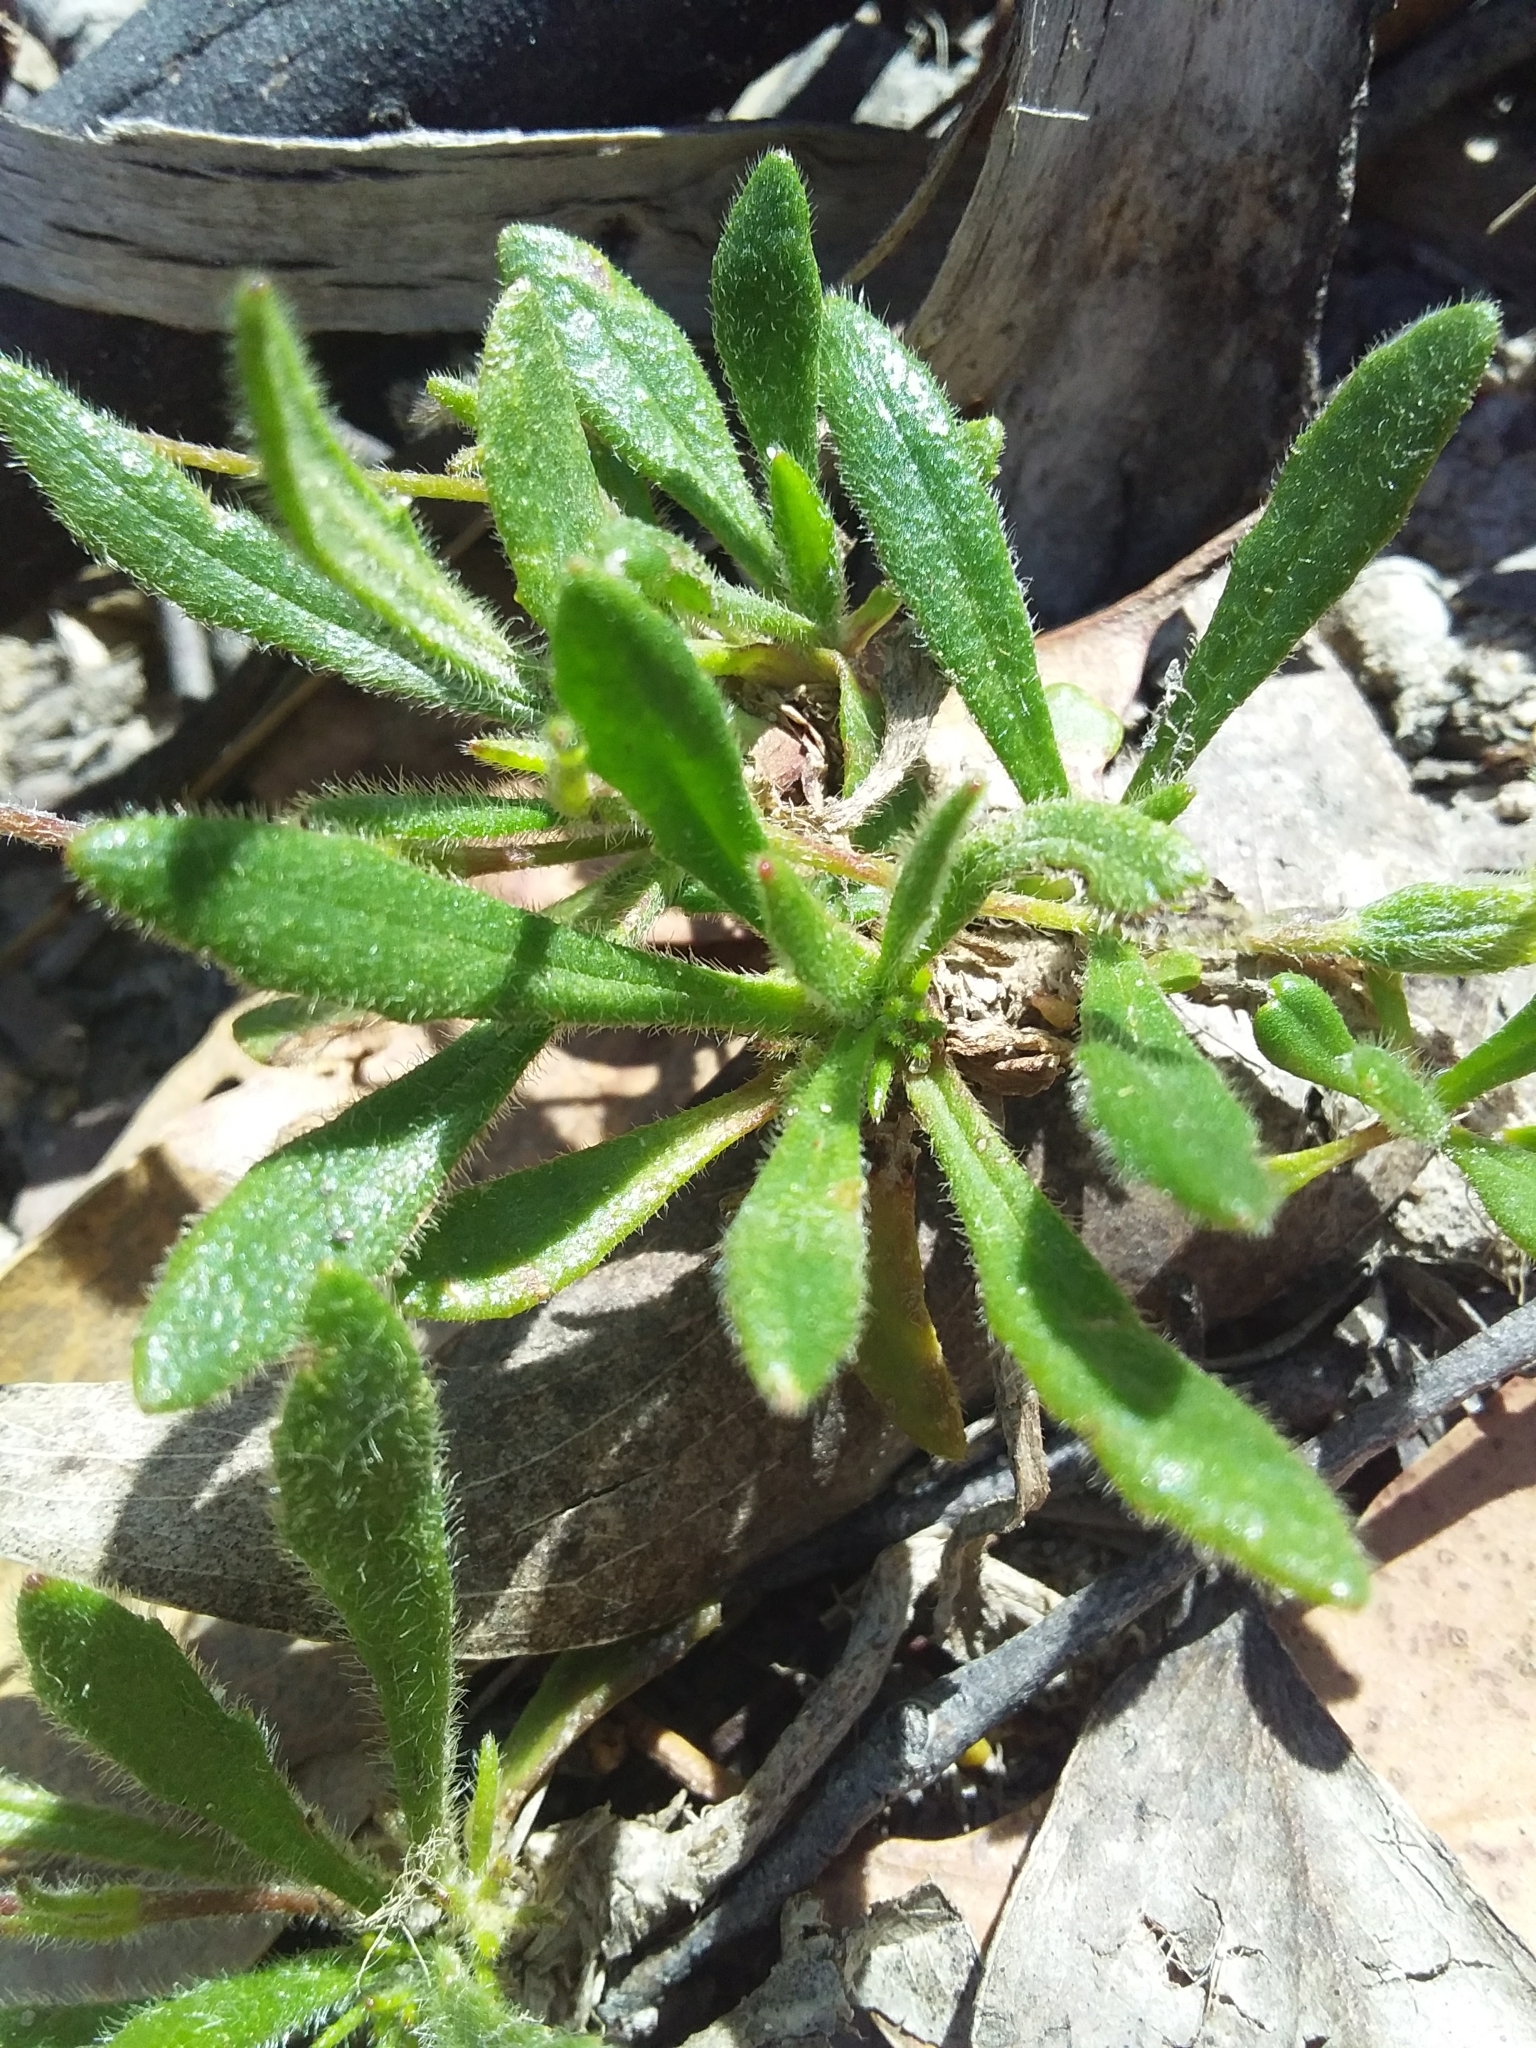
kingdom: Plantae
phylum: Tracheophyta
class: Magnoliopsida
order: Asterales
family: Goodeniaceae
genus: Goodenia
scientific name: Goodenia geniculata
